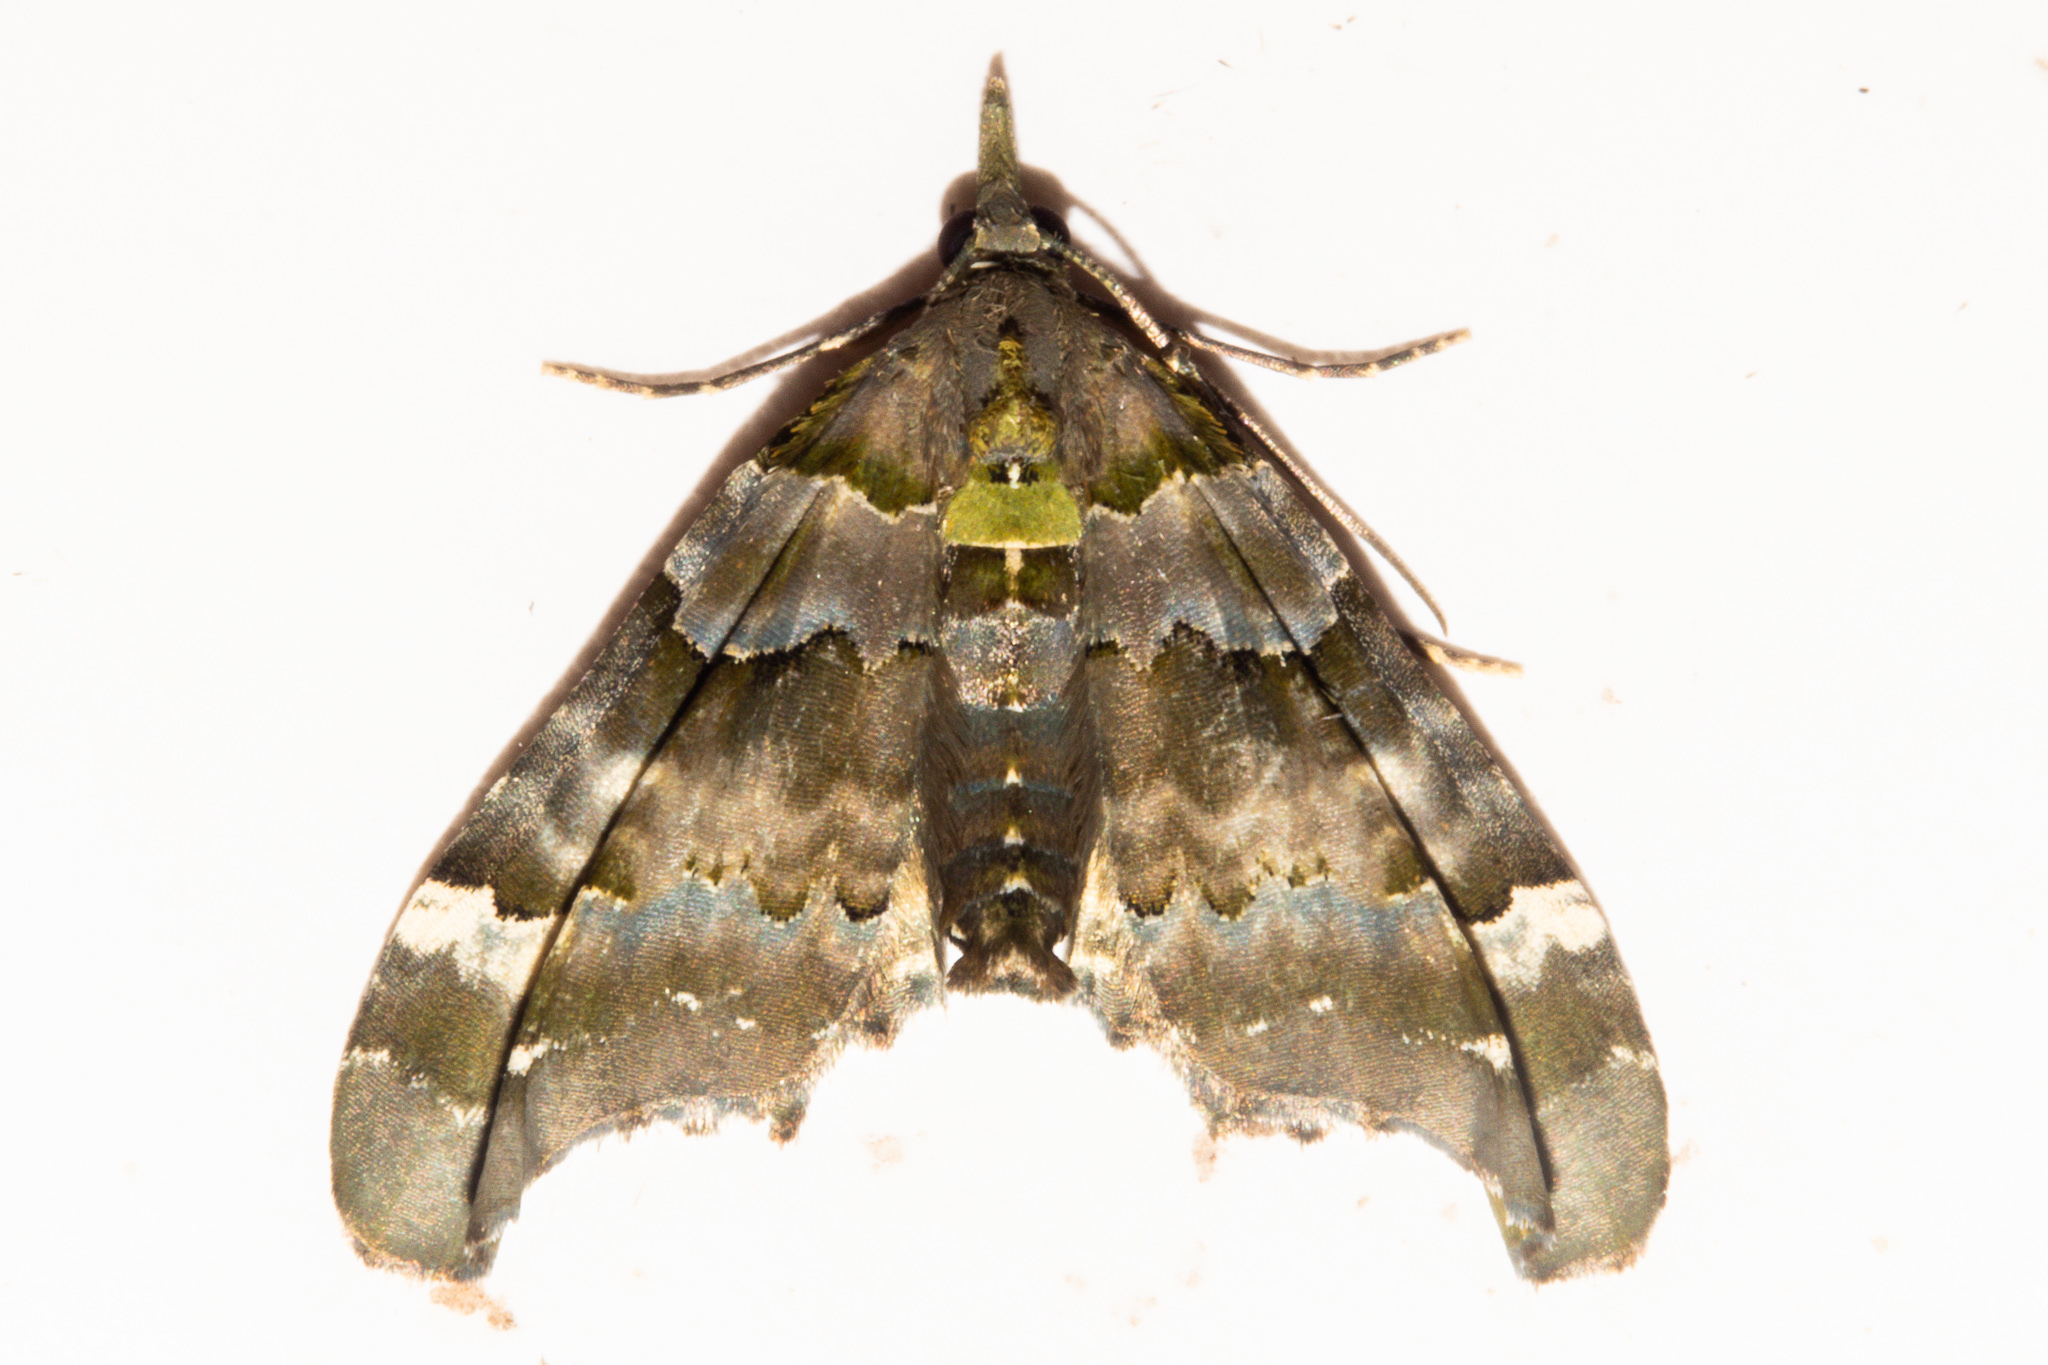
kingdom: Animalia
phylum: Arthropoda
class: Insecta
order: Lepidoptera
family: Geometridae
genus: Elvia
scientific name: Elvia glaucata
